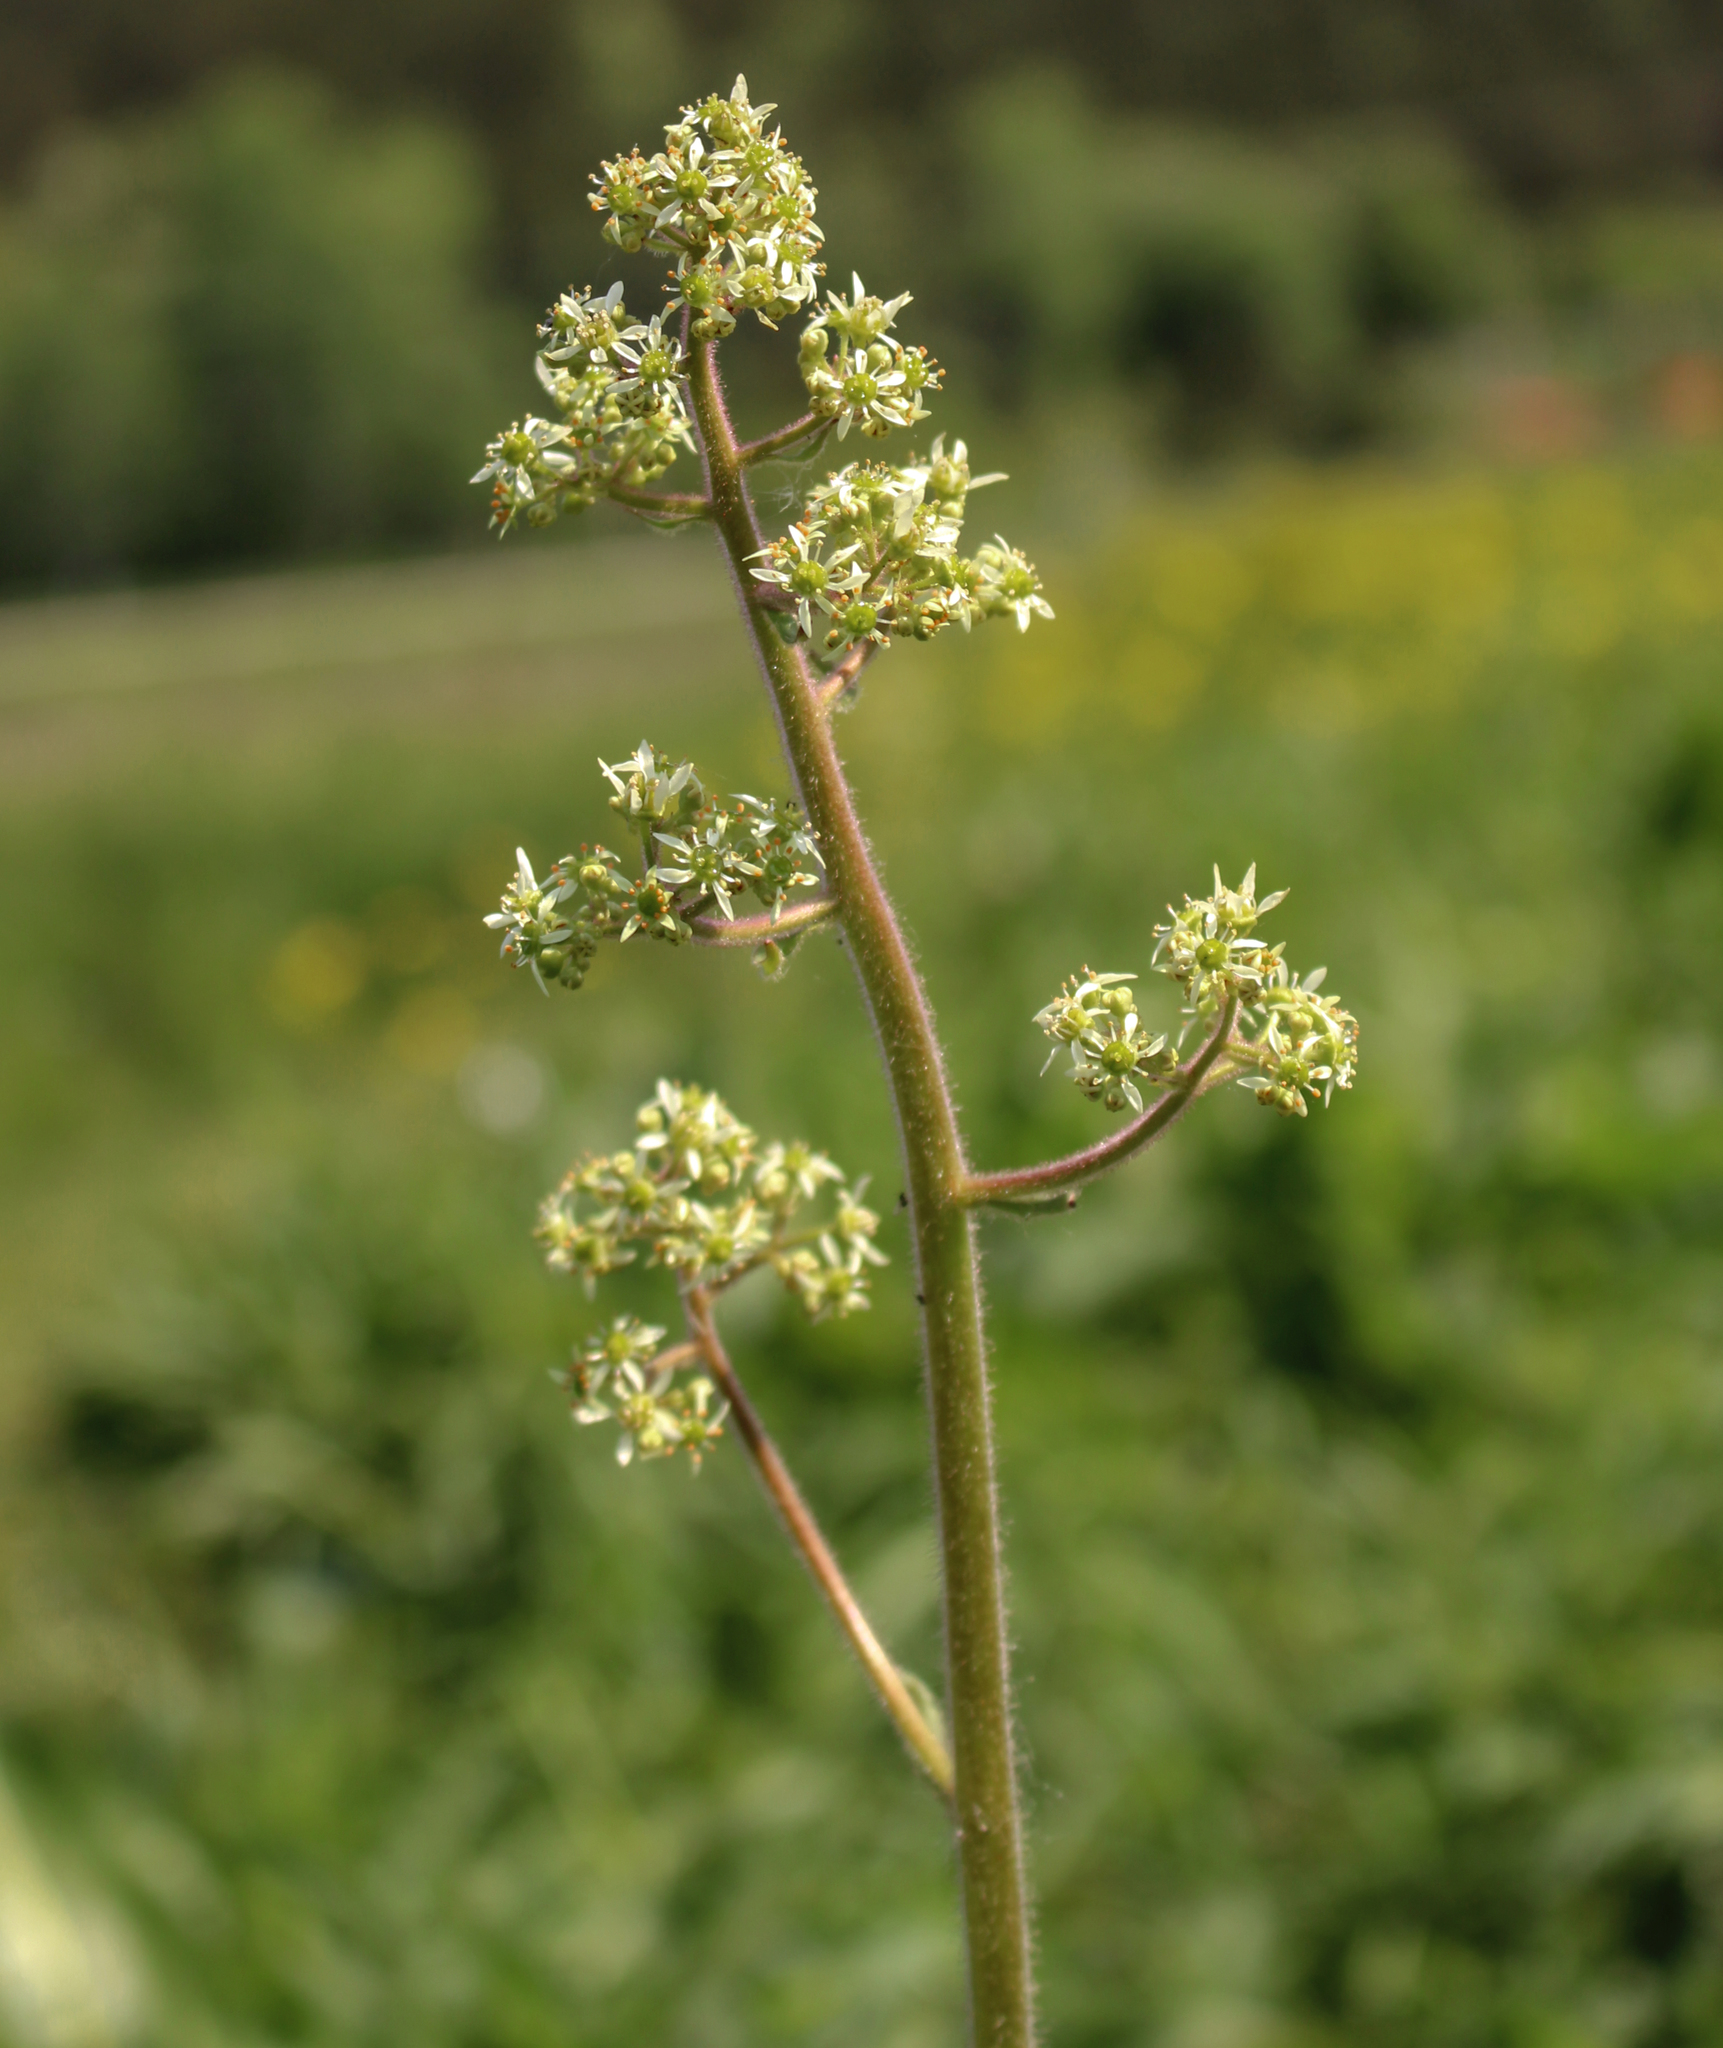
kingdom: Plantae
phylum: Tracheophyta
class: Magnoliopsida
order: Saxifragales
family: Saxifragaceae
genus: Micranthes
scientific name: Micranthes pensylvanica
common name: Marsh saxifrage
